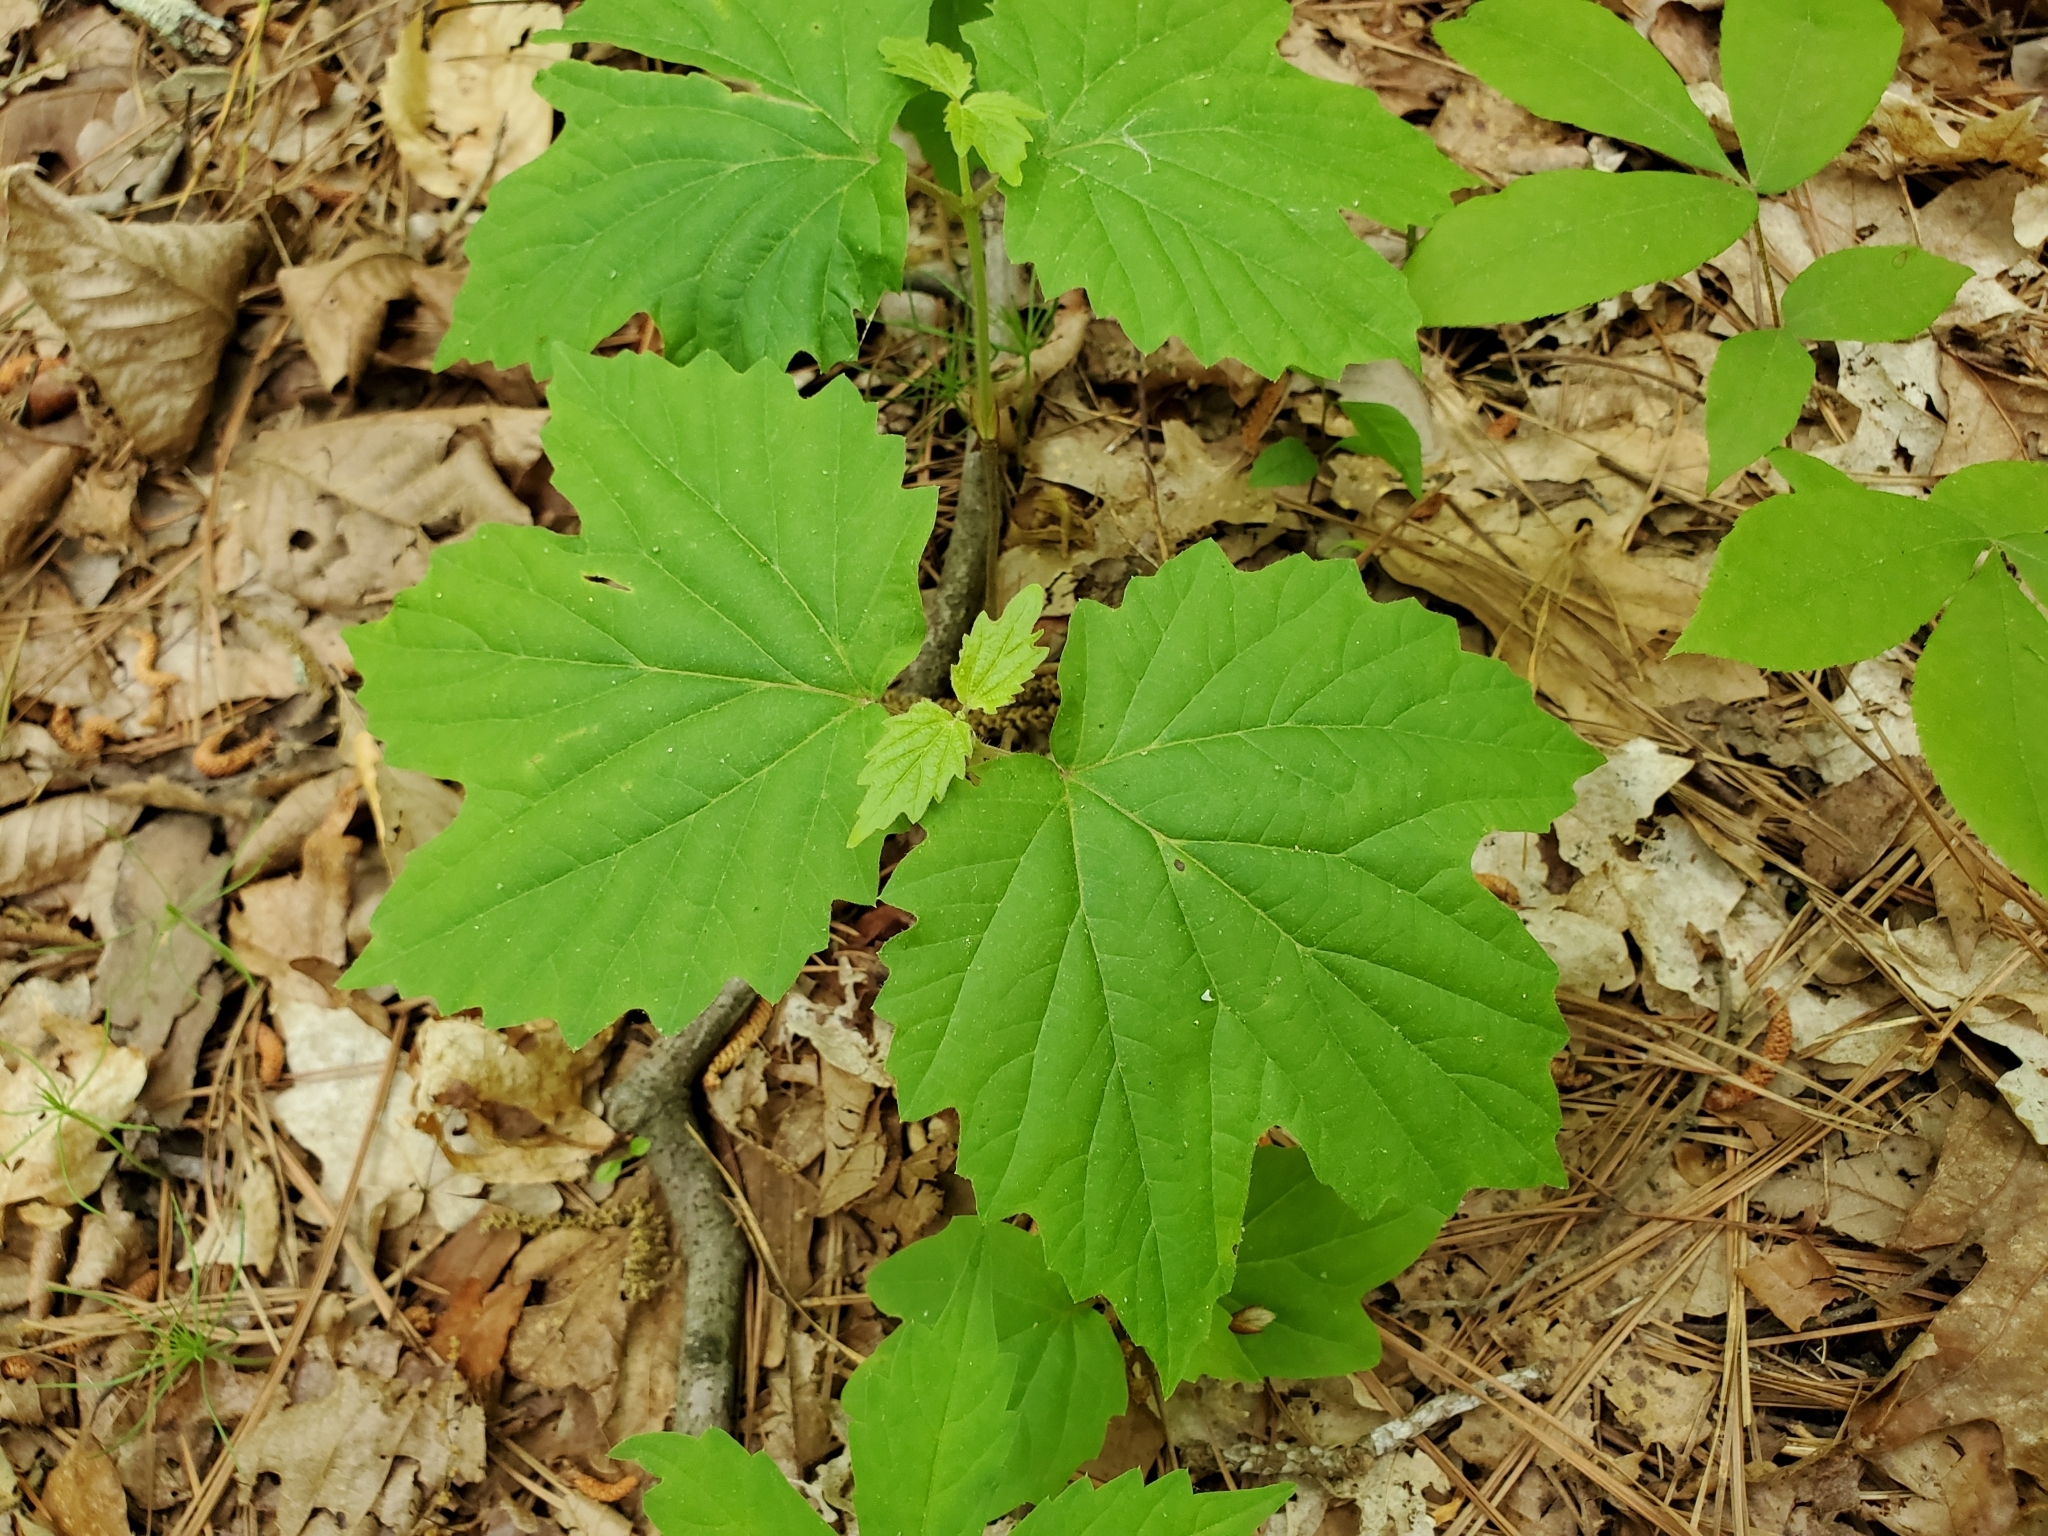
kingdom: Plantae
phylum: Tracheophyta
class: Magnoliopsida
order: Dipsacales
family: Viburnaceae
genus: Viburnum
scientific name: Viburnum acerifolium
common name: Dockmackie
